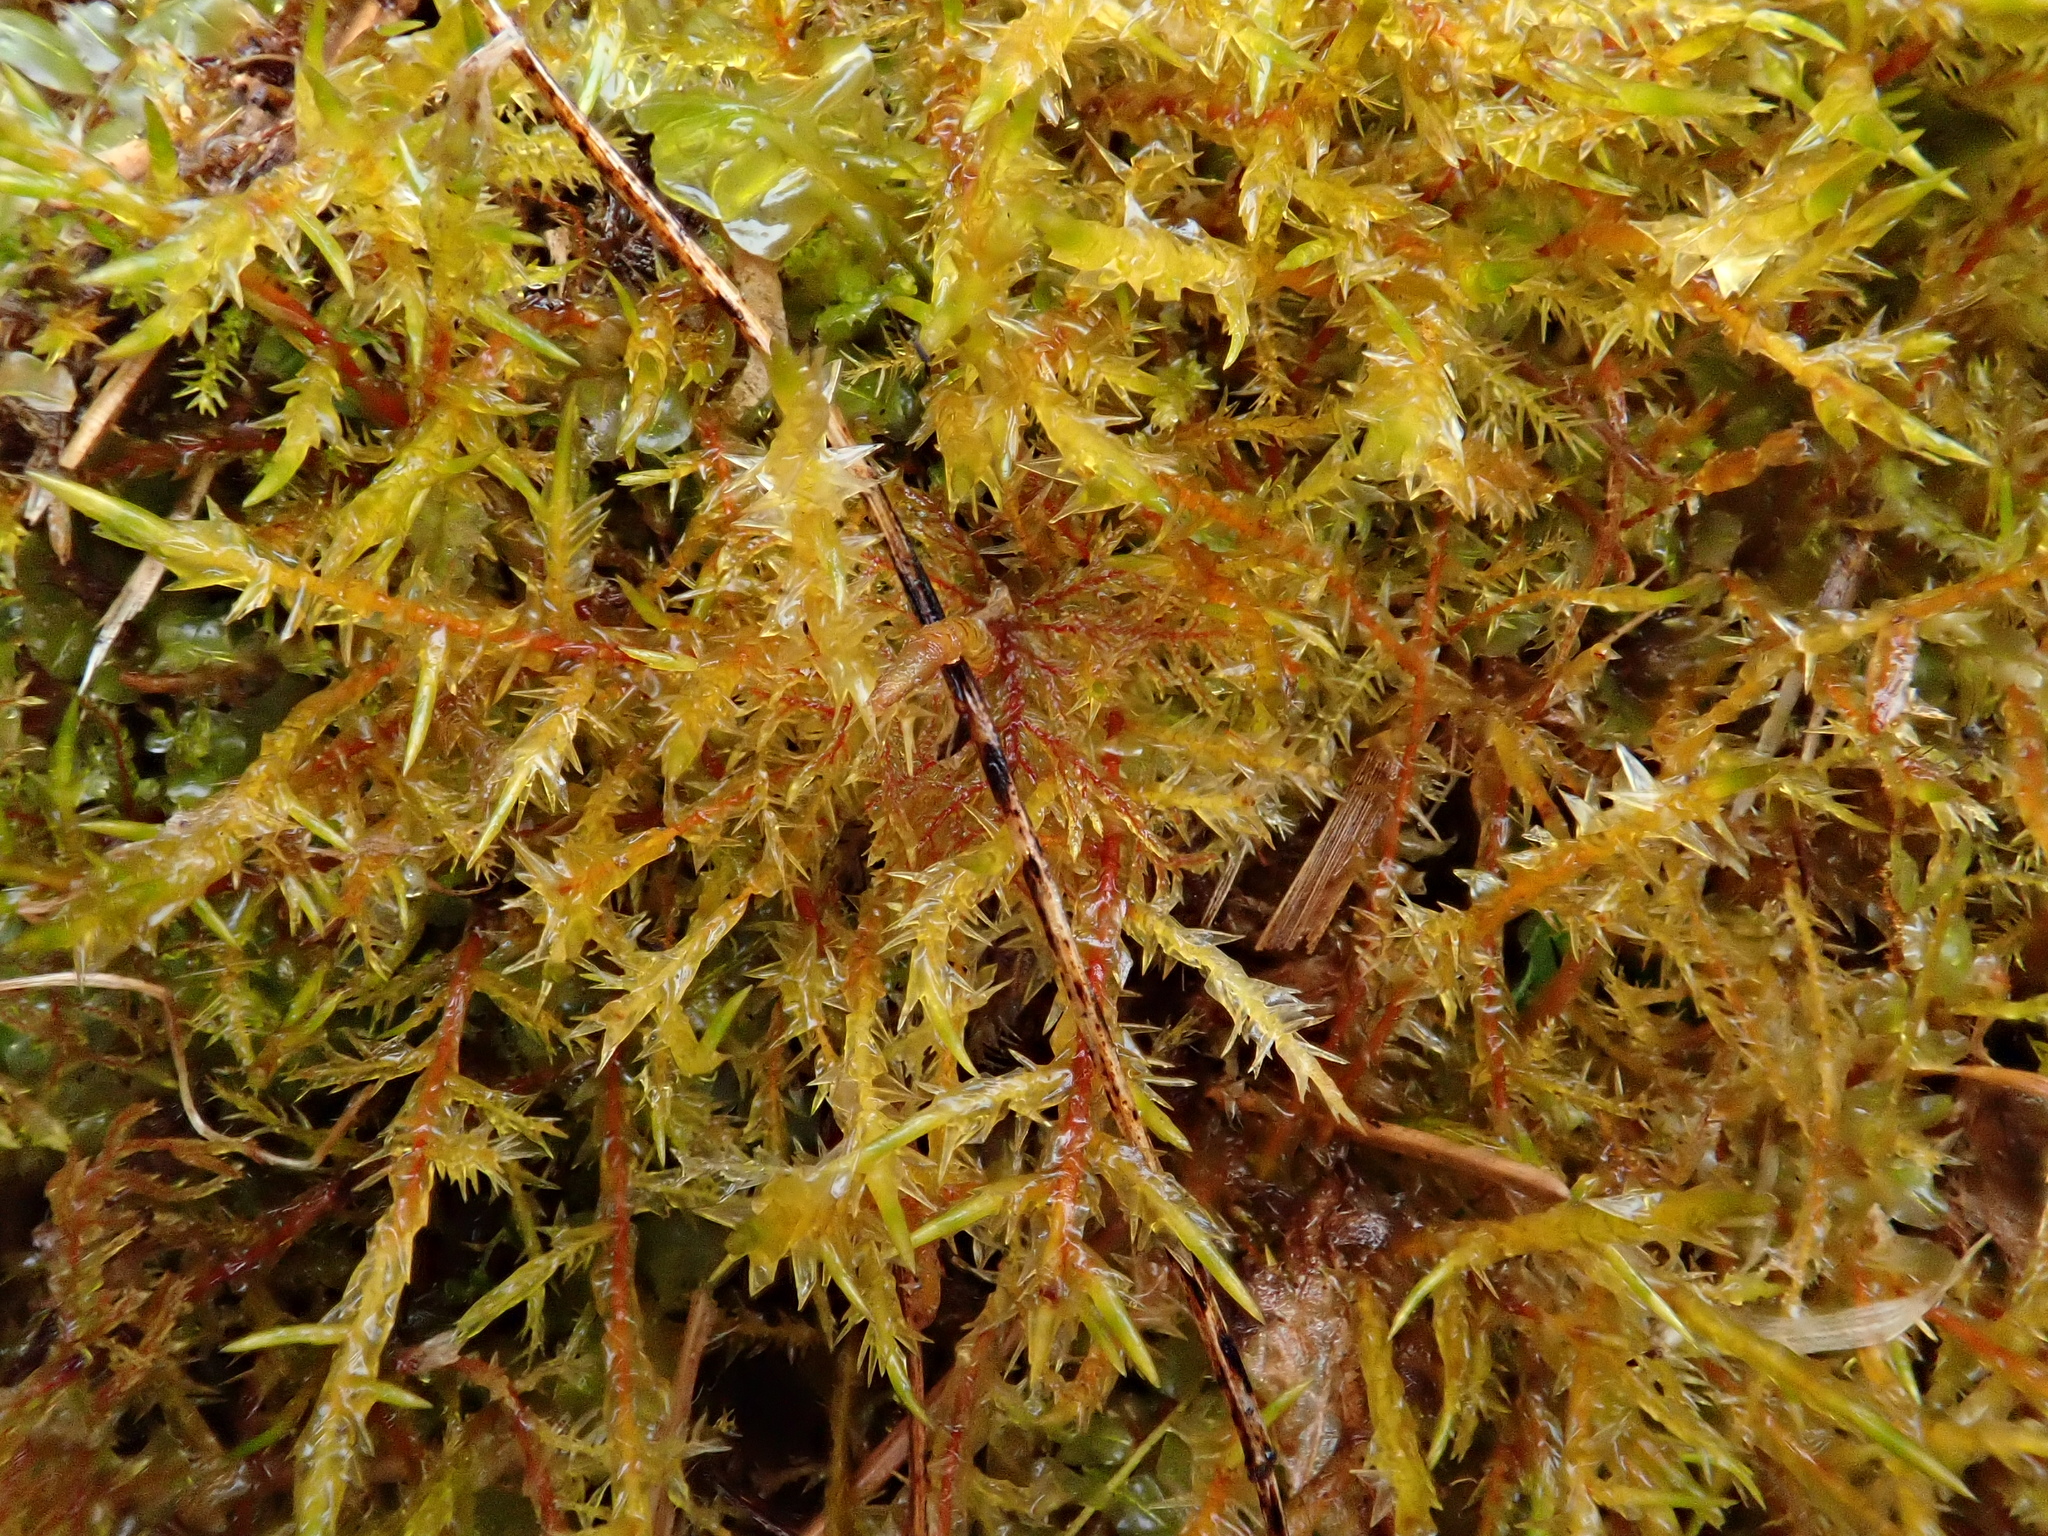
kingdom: Plantae
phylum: Bryophyta
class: Bryopsida
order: Hypnales
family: Pylaisiaceae
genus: Calliergonella
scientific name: Calliergonella cuspidata
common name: Common large wetland moss
